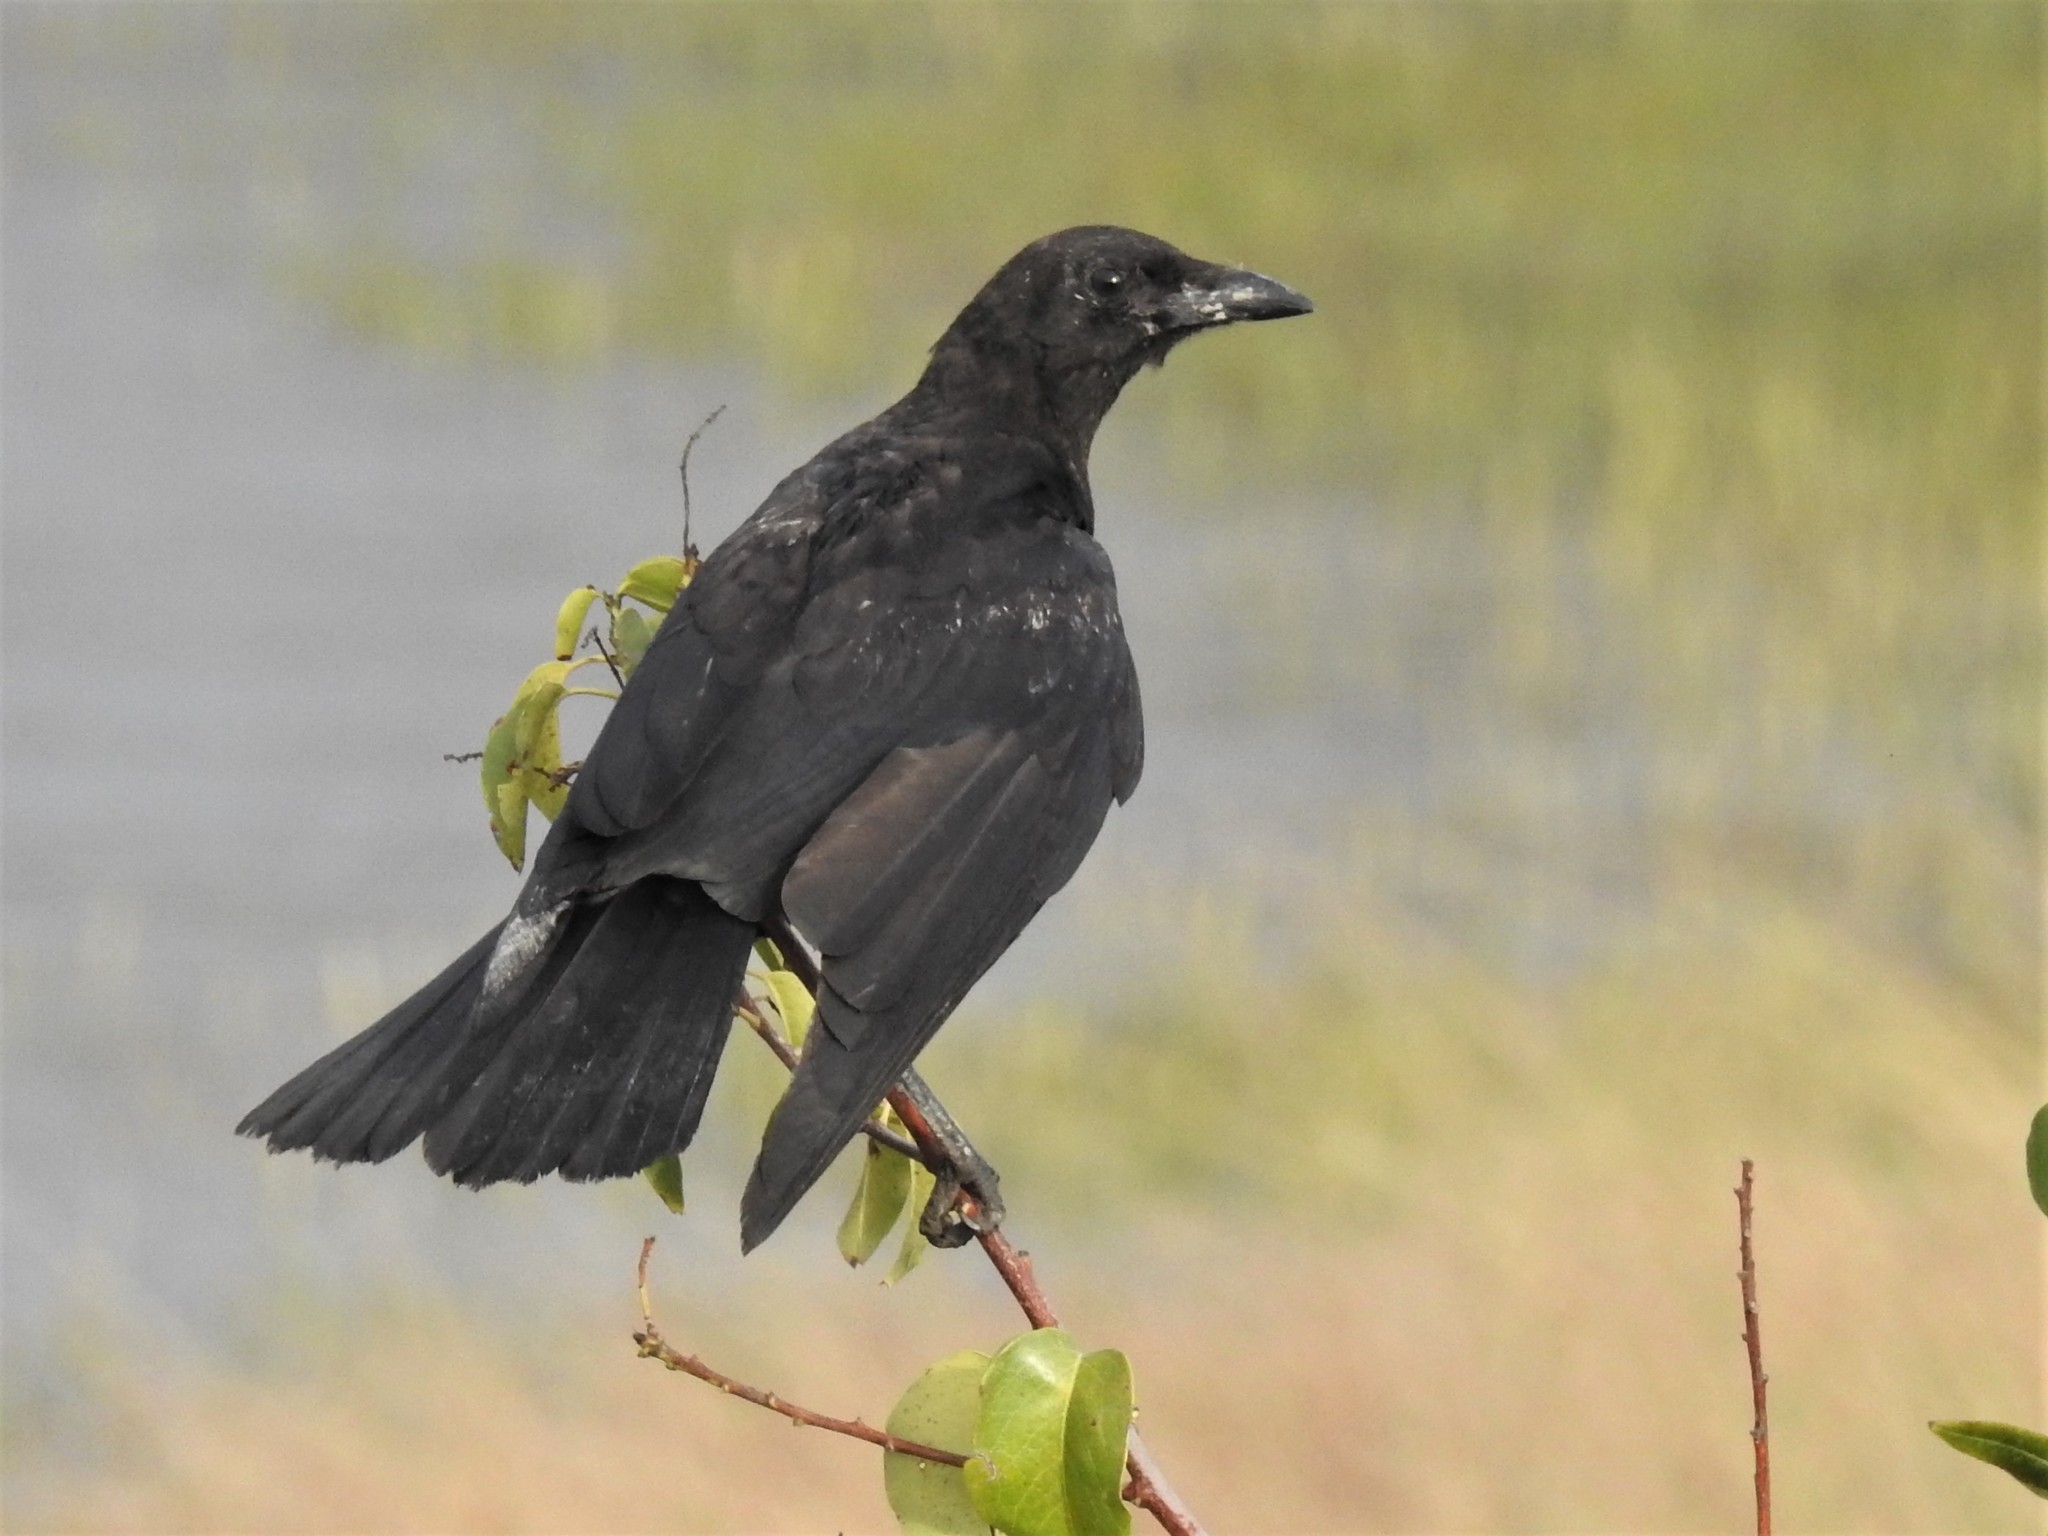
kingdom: Animalia
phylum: Chordata
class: Aves
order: Passeriformes
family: Corvidae
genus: Corvus
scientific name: Corvus brachyrhynchos
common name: American crow
